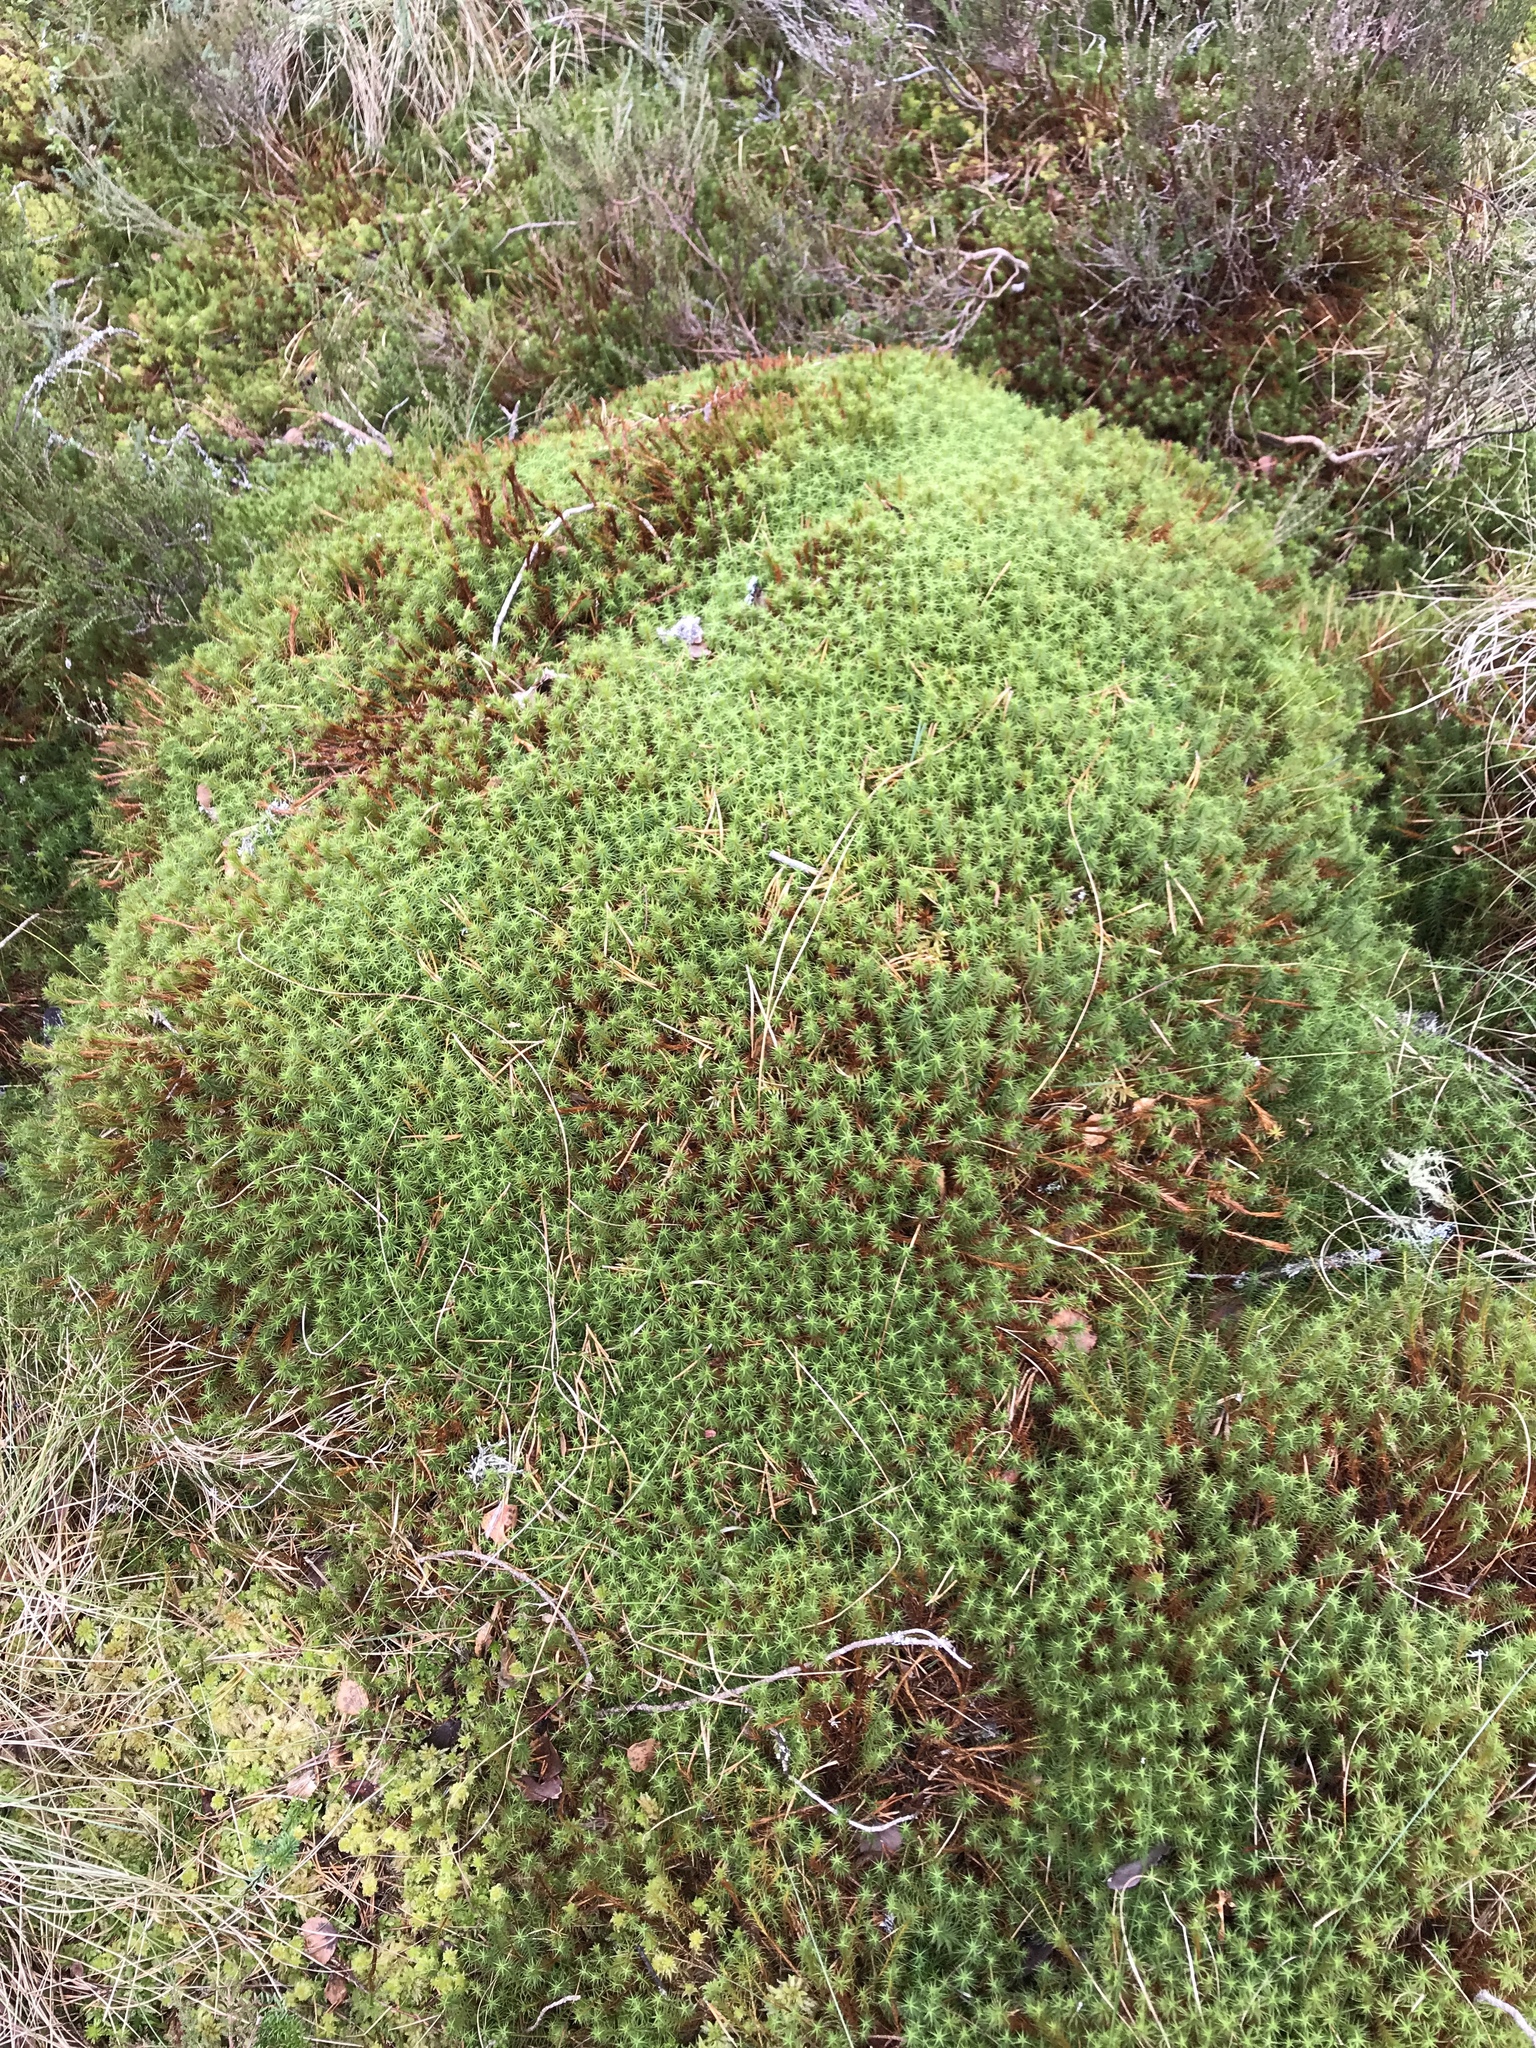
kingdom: Plantae
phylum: Bryophyta
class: Polytrichopsida
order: Polytrichales
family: Polytrichaceae
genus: Polytrichum
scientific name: Polytrichum commune
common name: Common haircap
